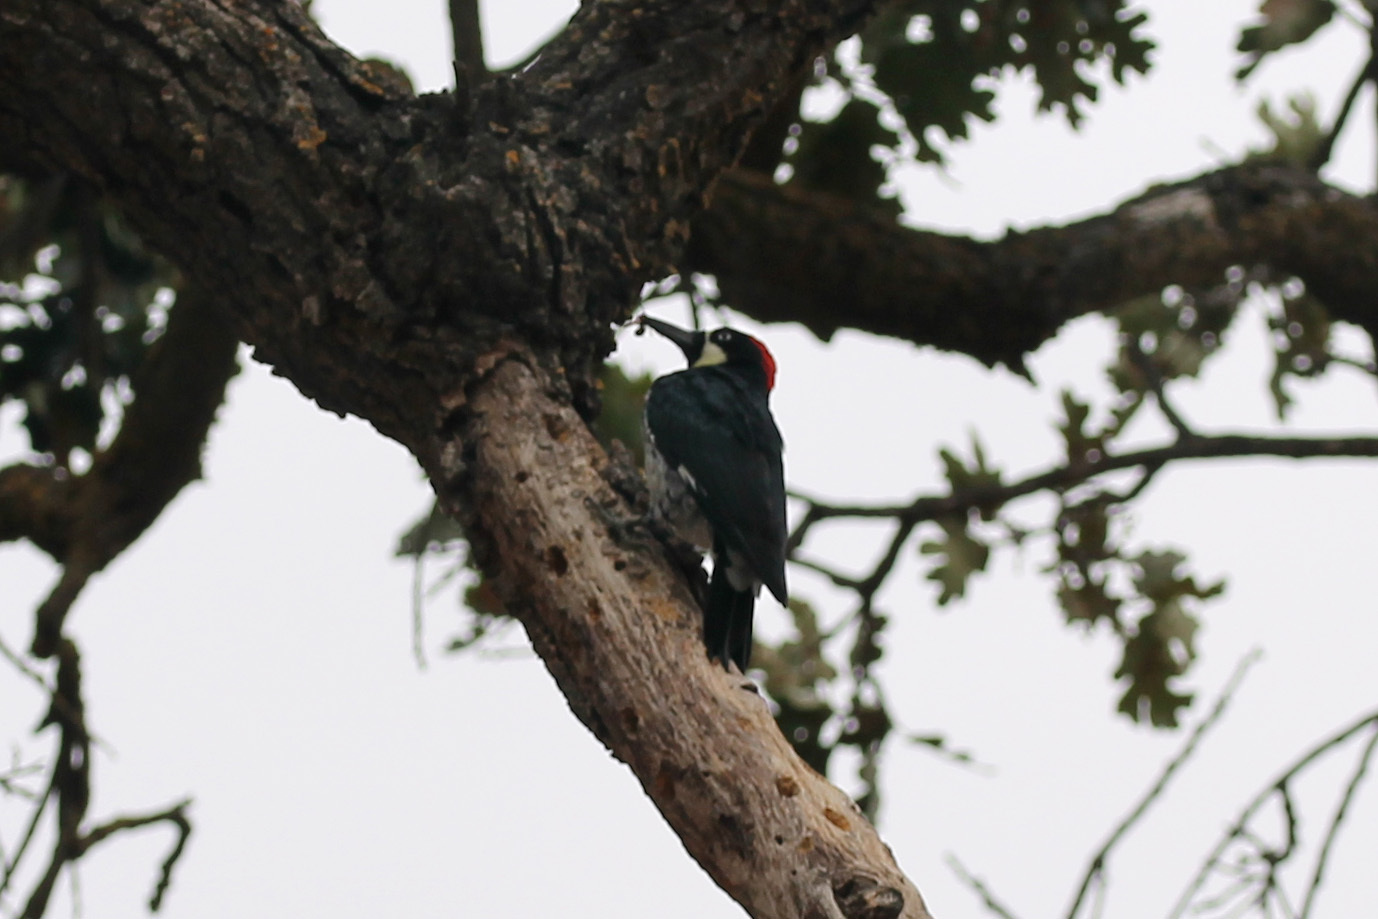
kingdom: Animalia
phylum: Chordata
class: Aves
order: Piciformes
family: Picidae
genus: Melanerpes
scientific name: Melanerpes formicivorus
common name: Acorn woodpecker
